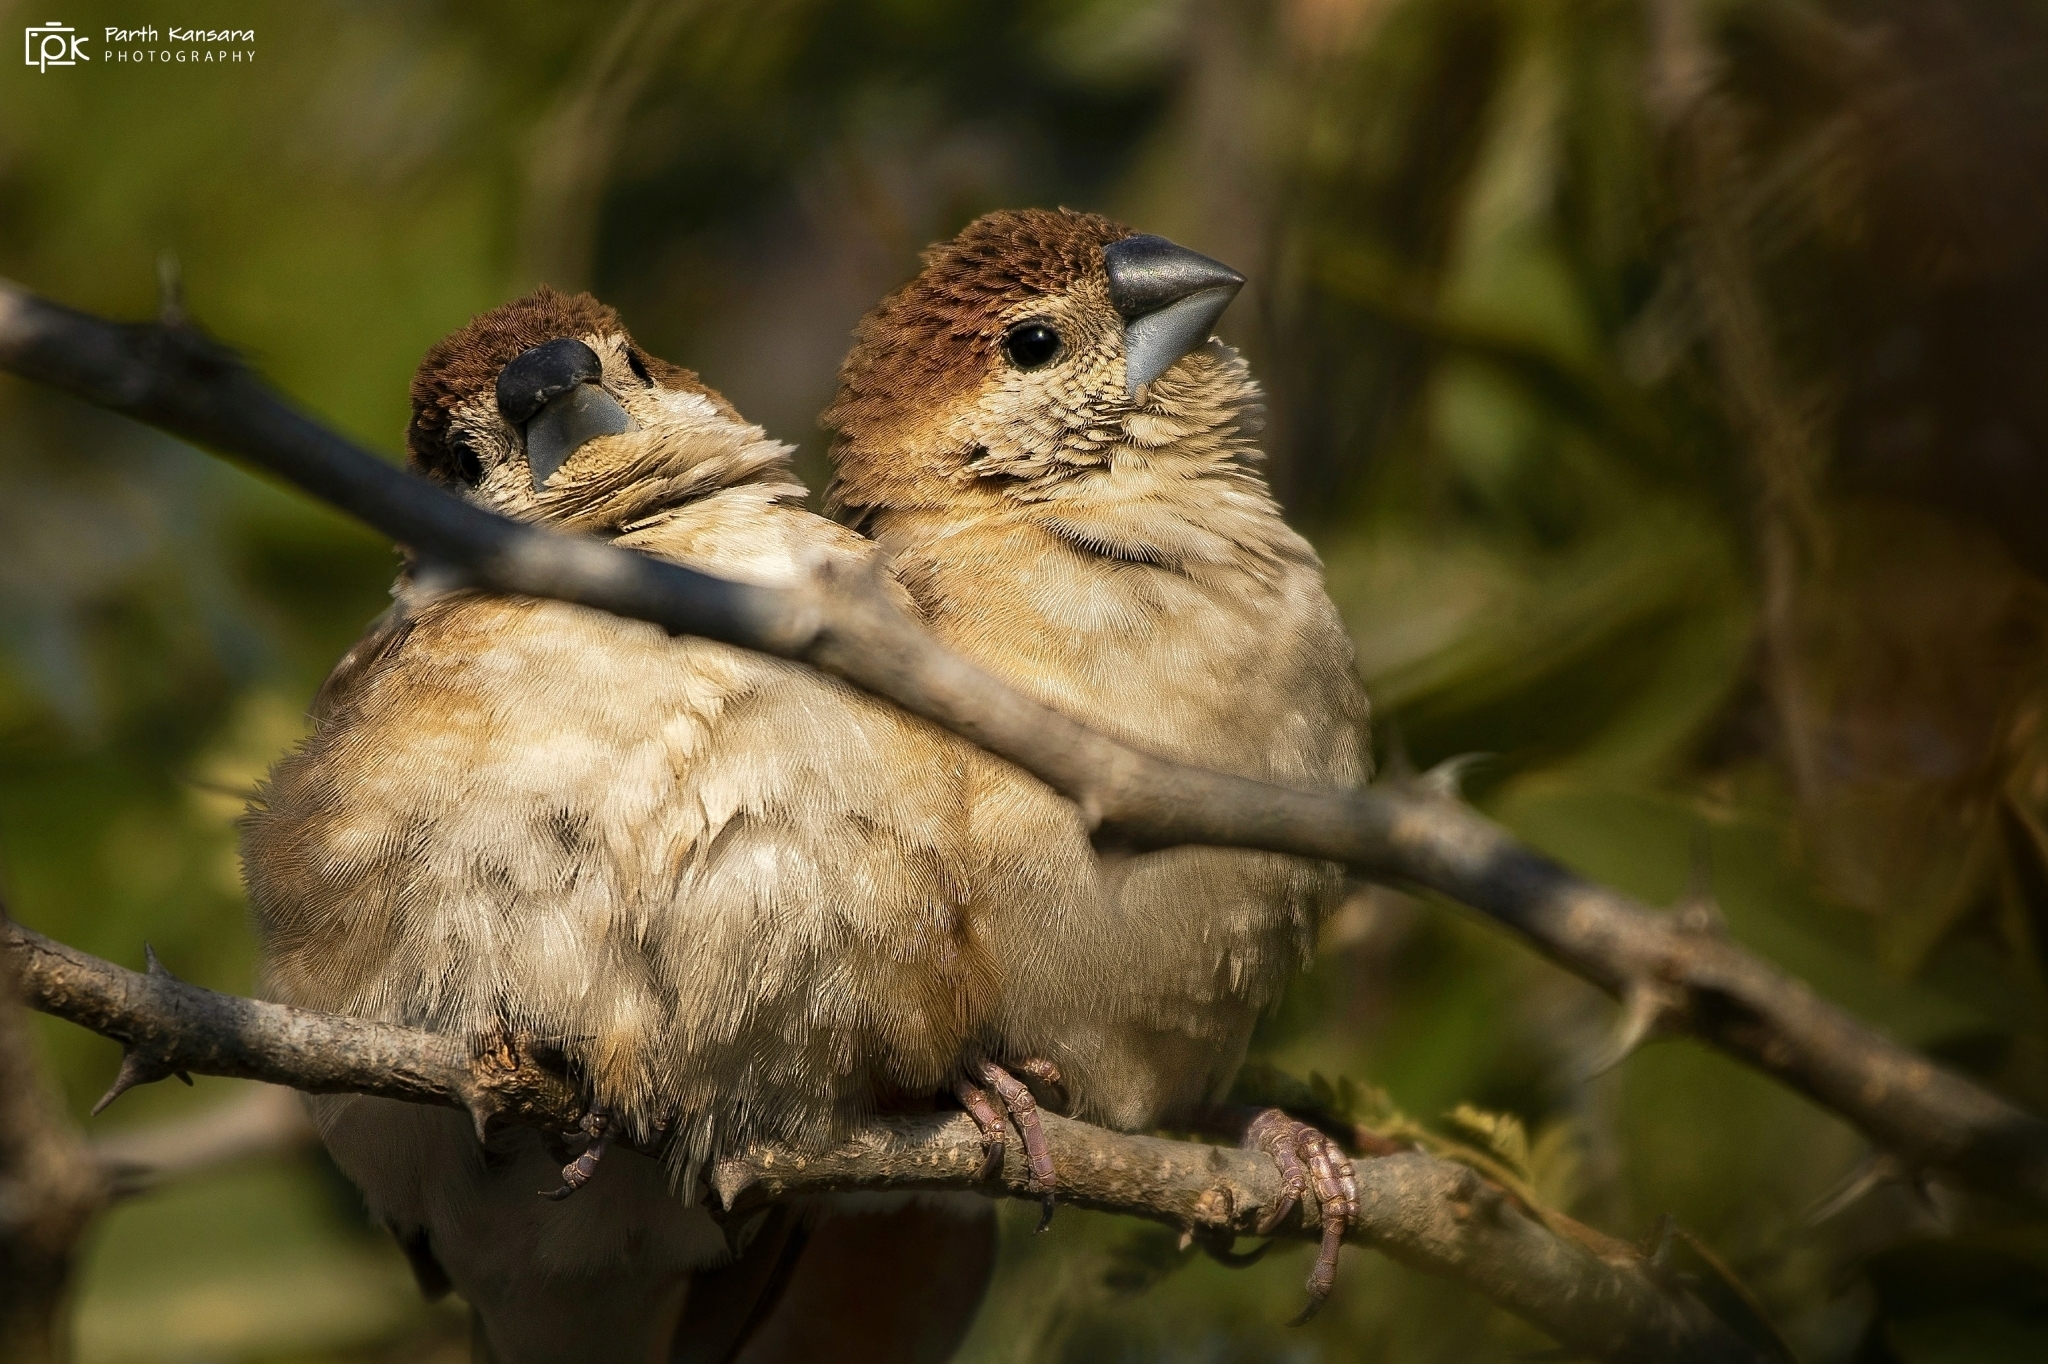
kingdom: Animalia
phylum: Chordata
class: Aves
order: Passeriformes
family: Estrildidae
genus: Euodice
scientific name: Euodice malabarica
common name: Indian silverbill
